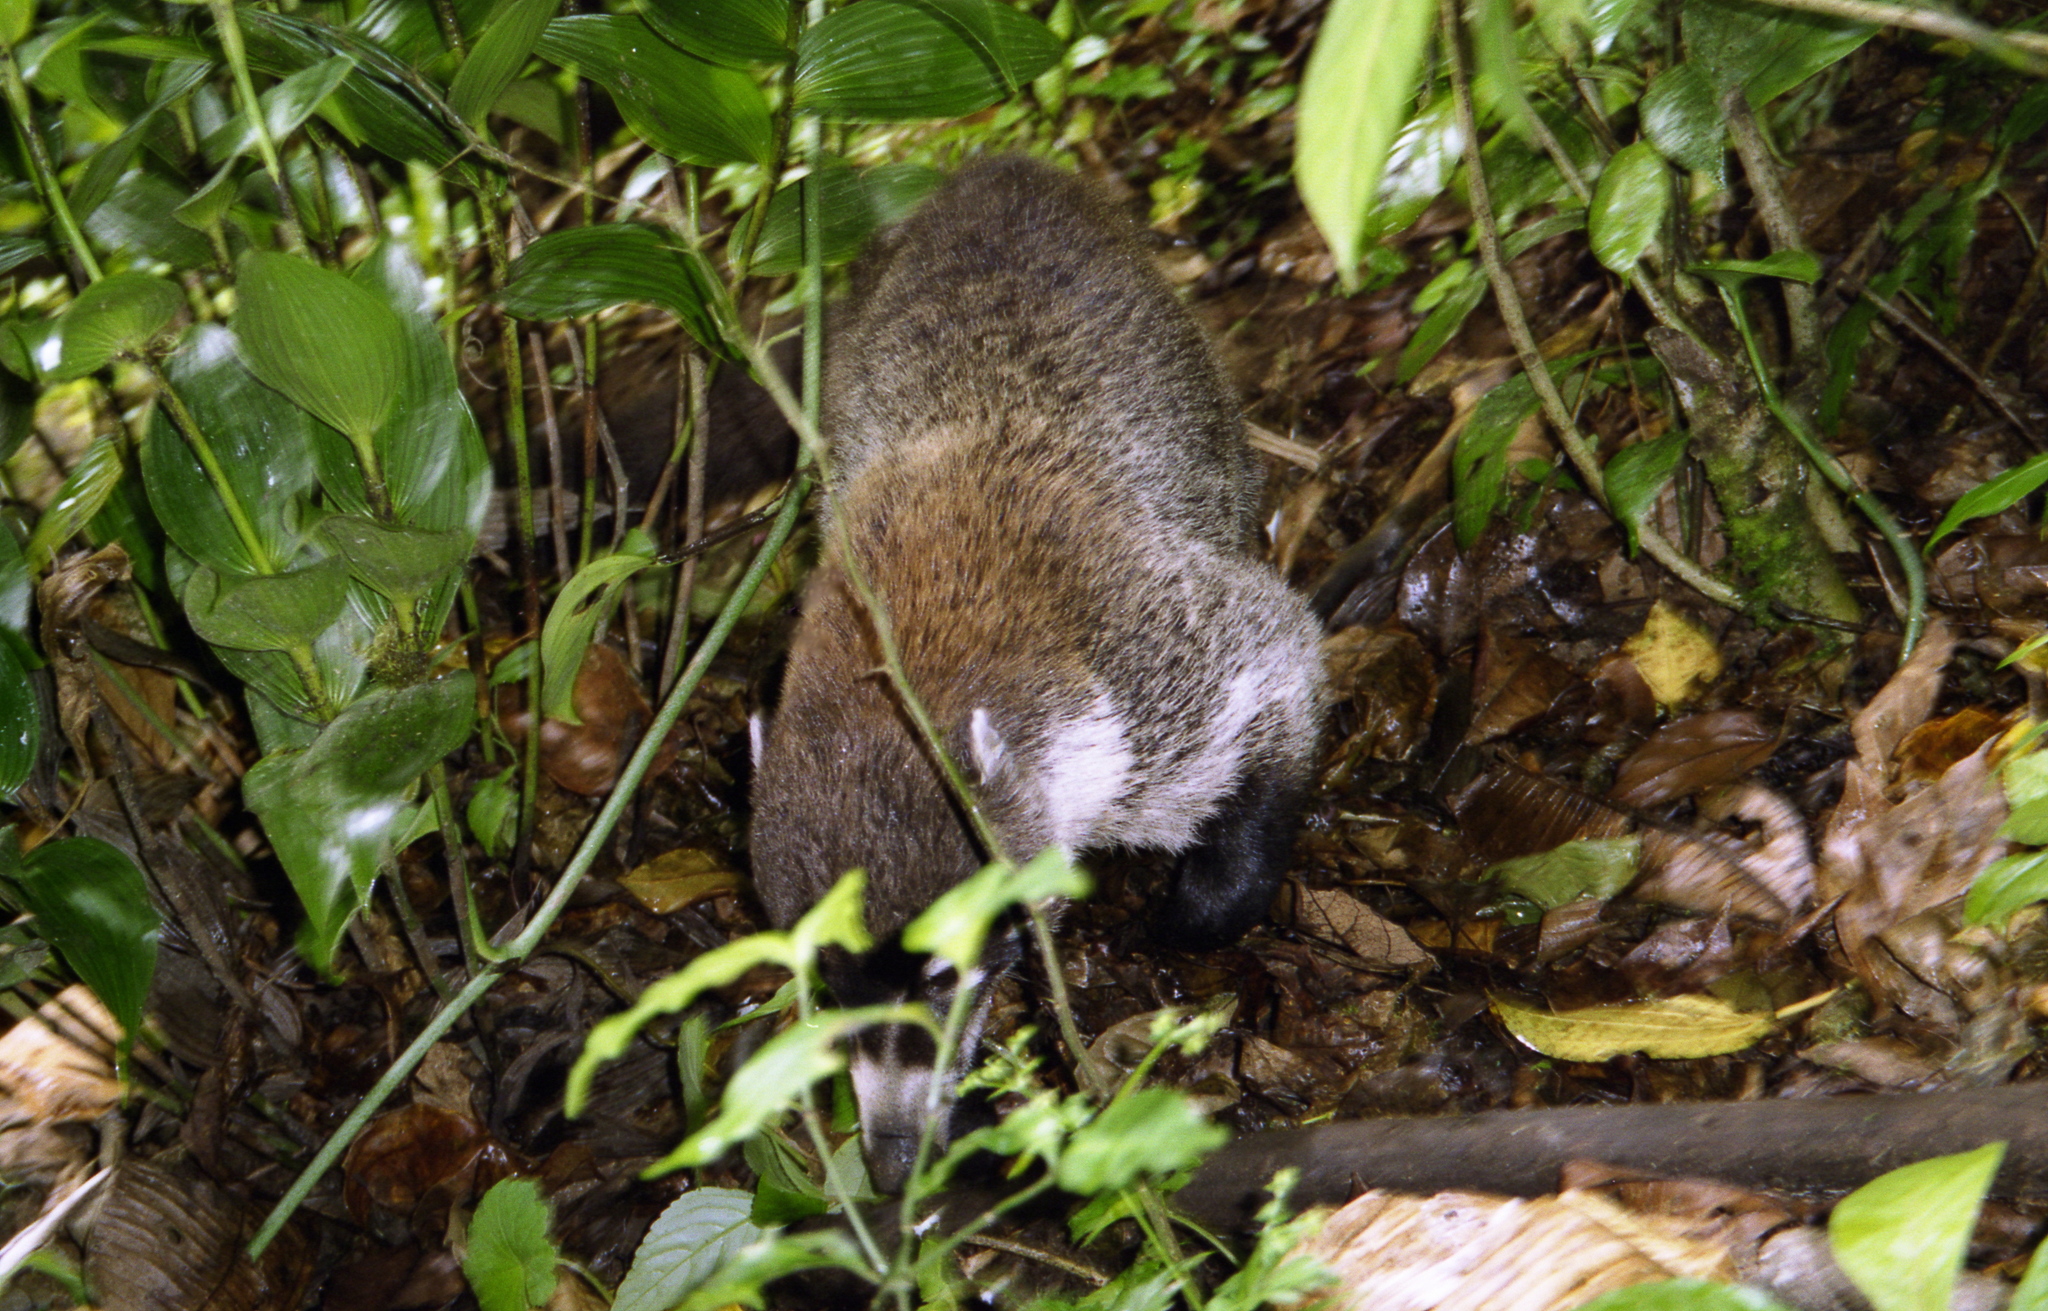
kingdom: Animalia
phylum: Chordata
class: Mammalia
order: Carnivora
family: Procyonidae
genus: Nasua
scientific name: Nasua narica
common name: White-nosed coati
